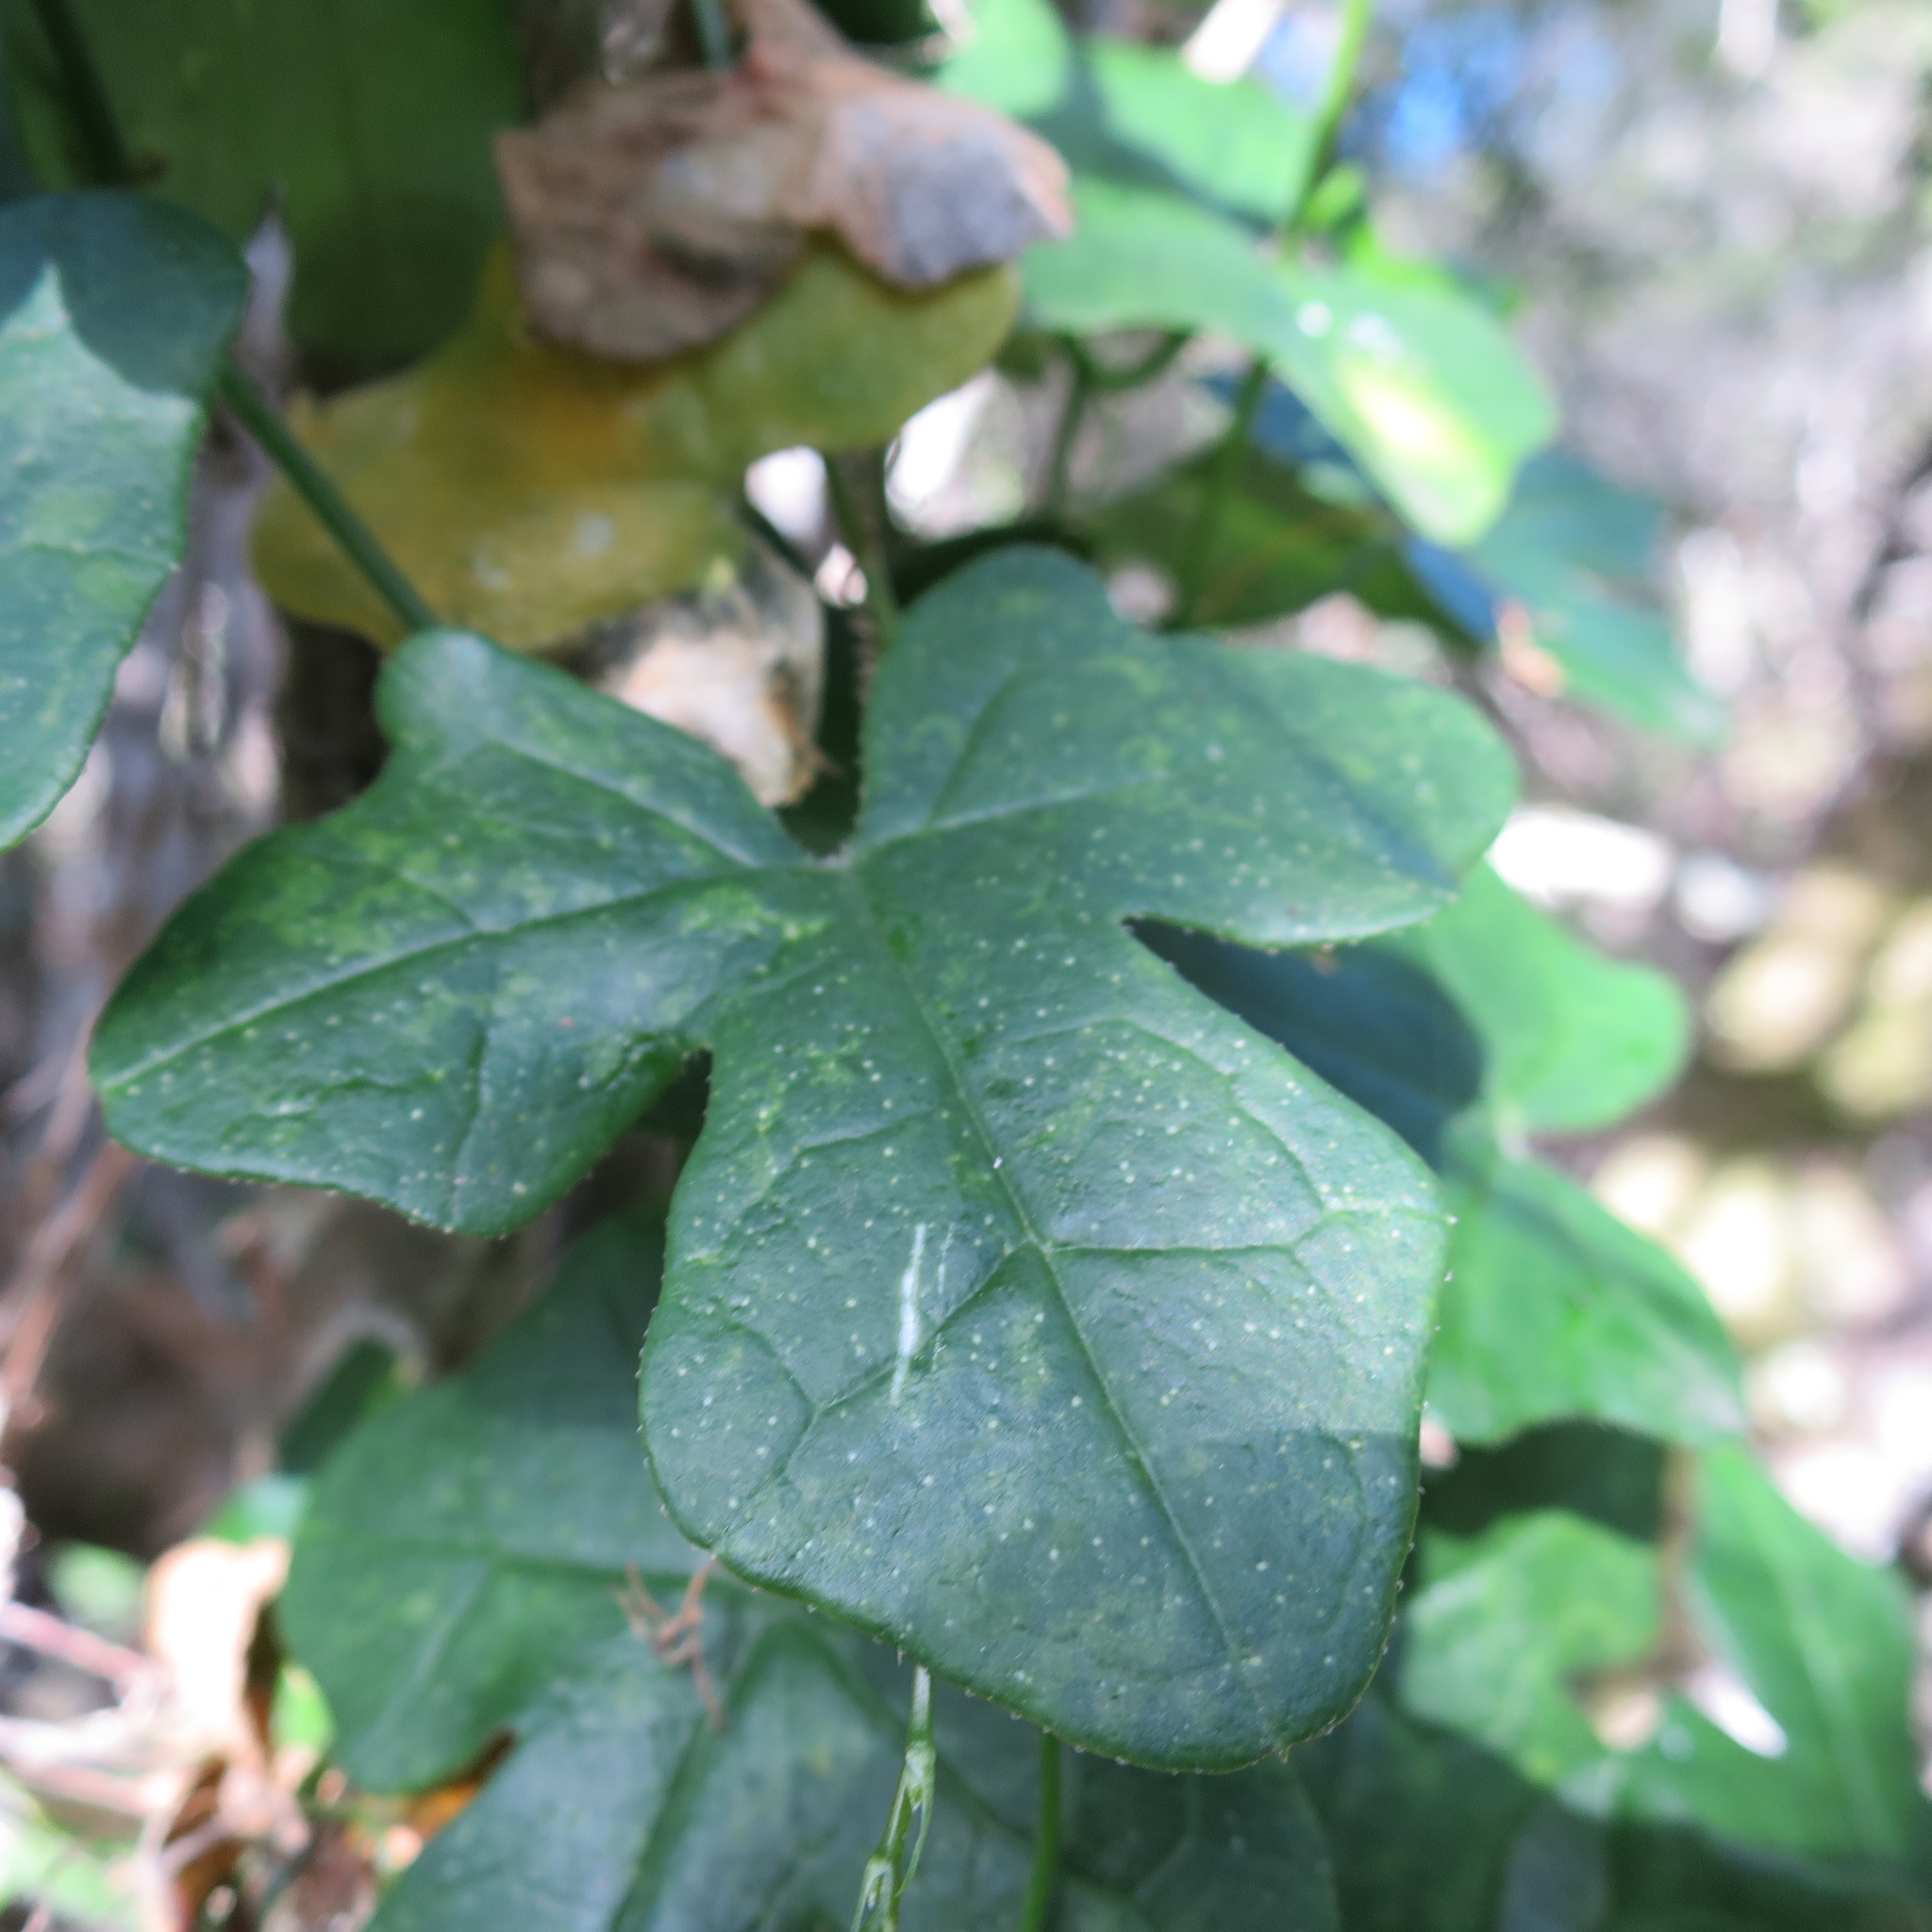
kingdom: Plantae
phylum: Tracheophyta
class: Magnoliopsida
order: Cucurbitales
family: Cucurbitaceae
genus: Kedrostis
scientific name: Kedrostis nana
